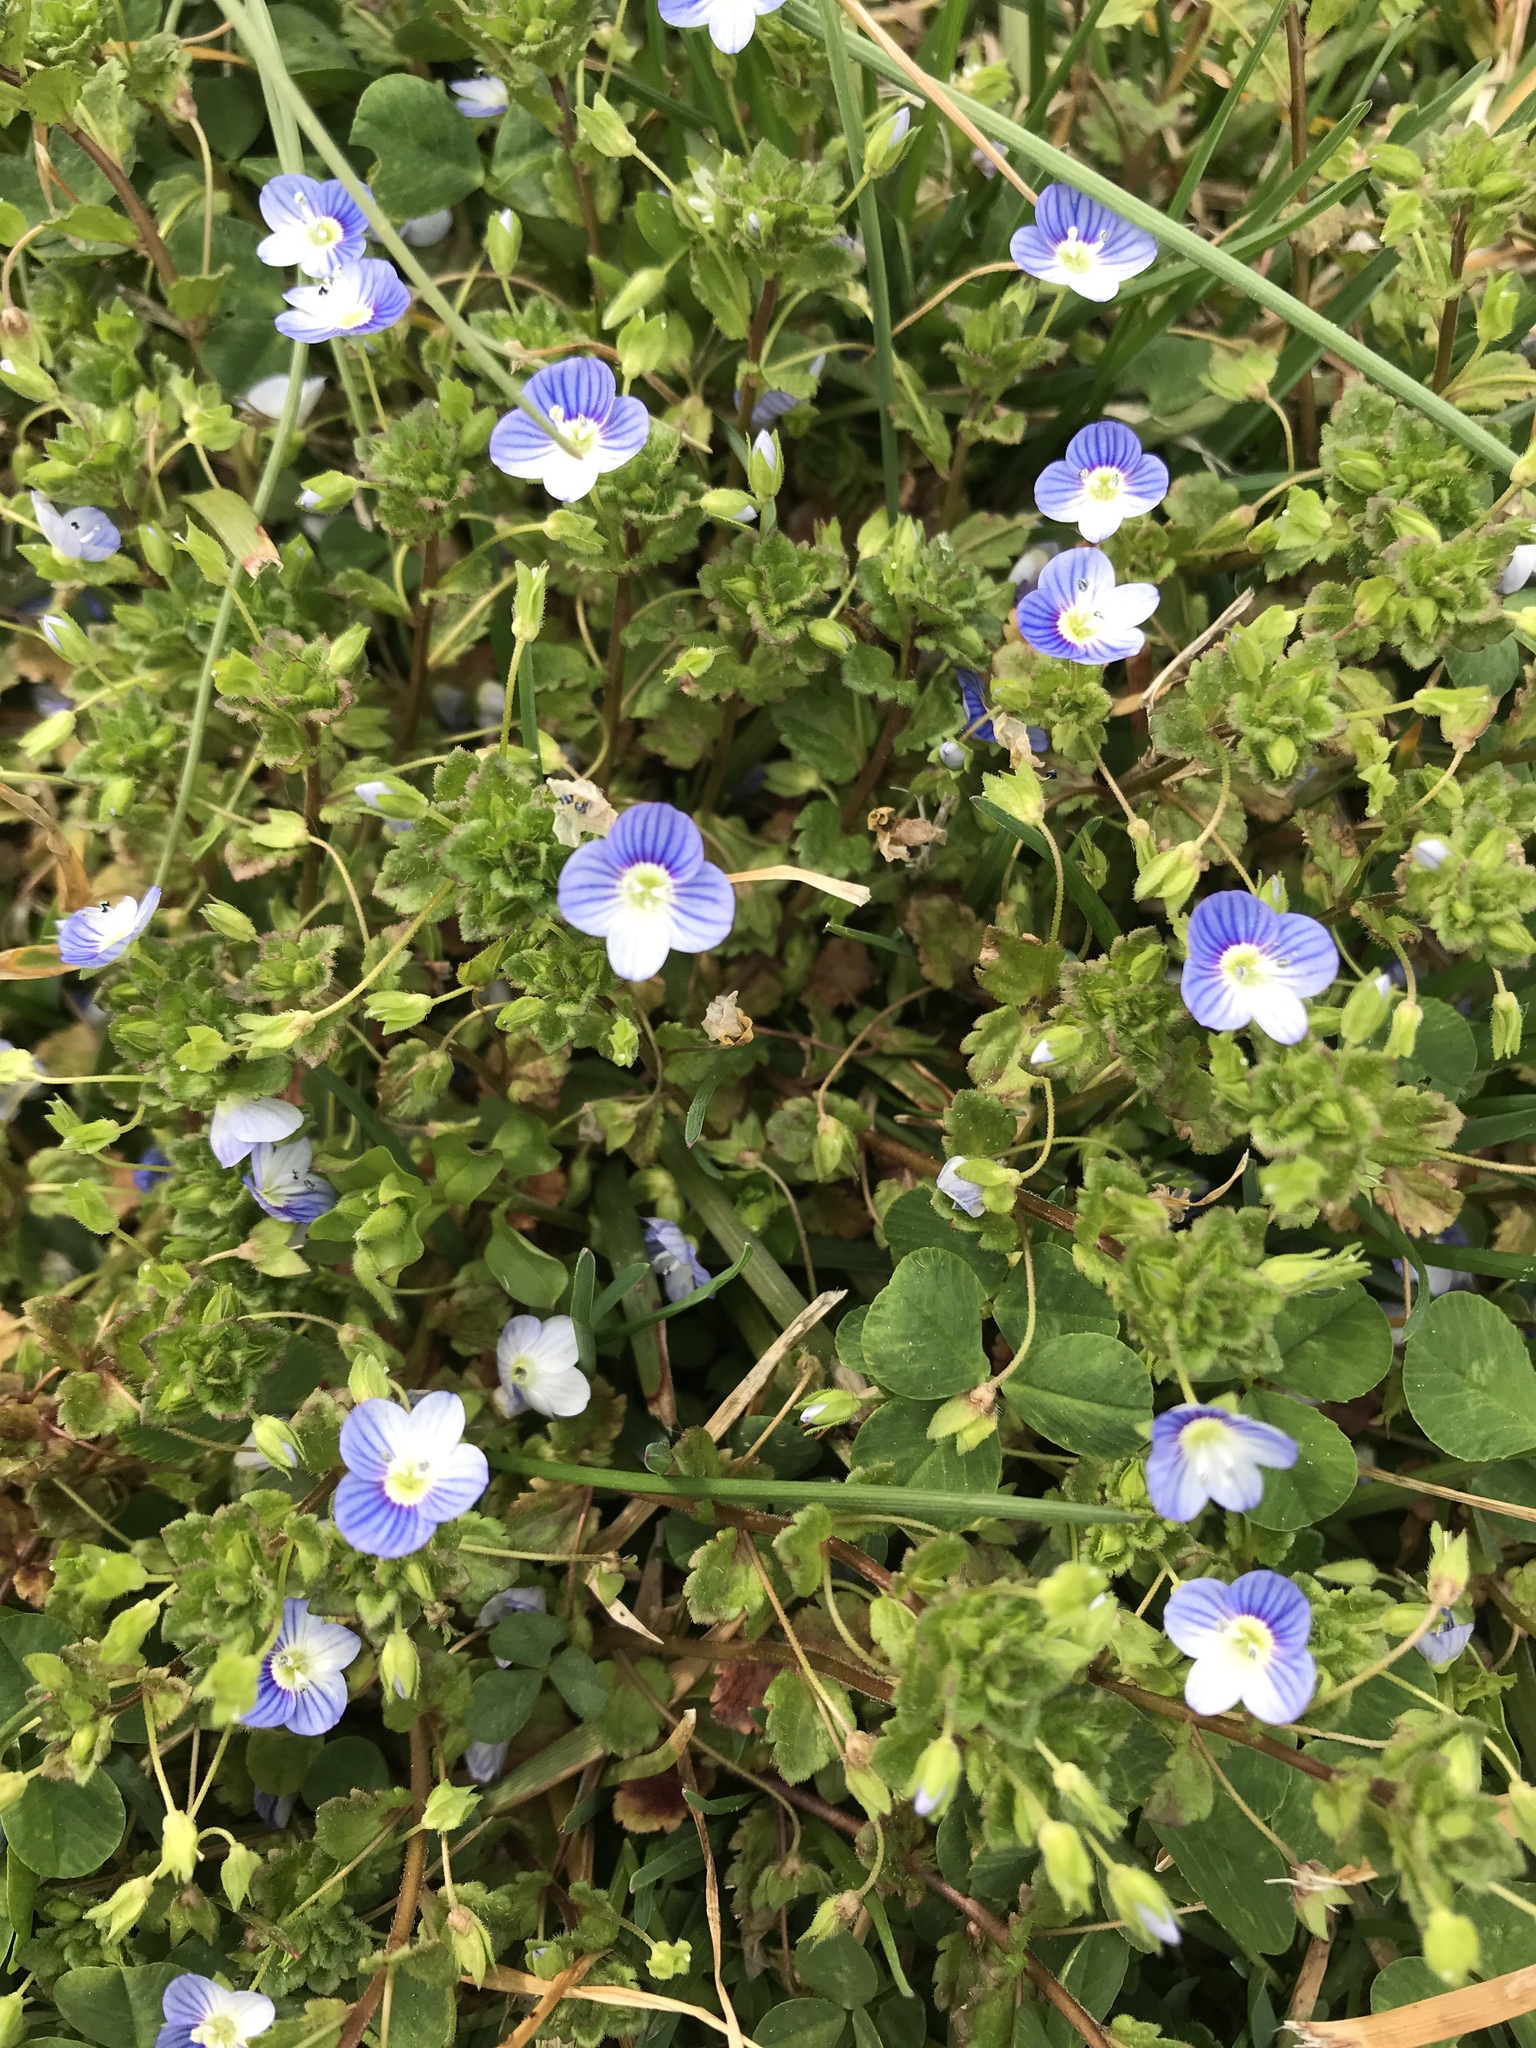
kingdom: Plantae
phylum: Tracheophyta
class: Magnoliopsida
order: Lamiales
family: Plantaginaceae
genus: Veronica
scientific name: Veronica persica
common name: Common field-speedwell
